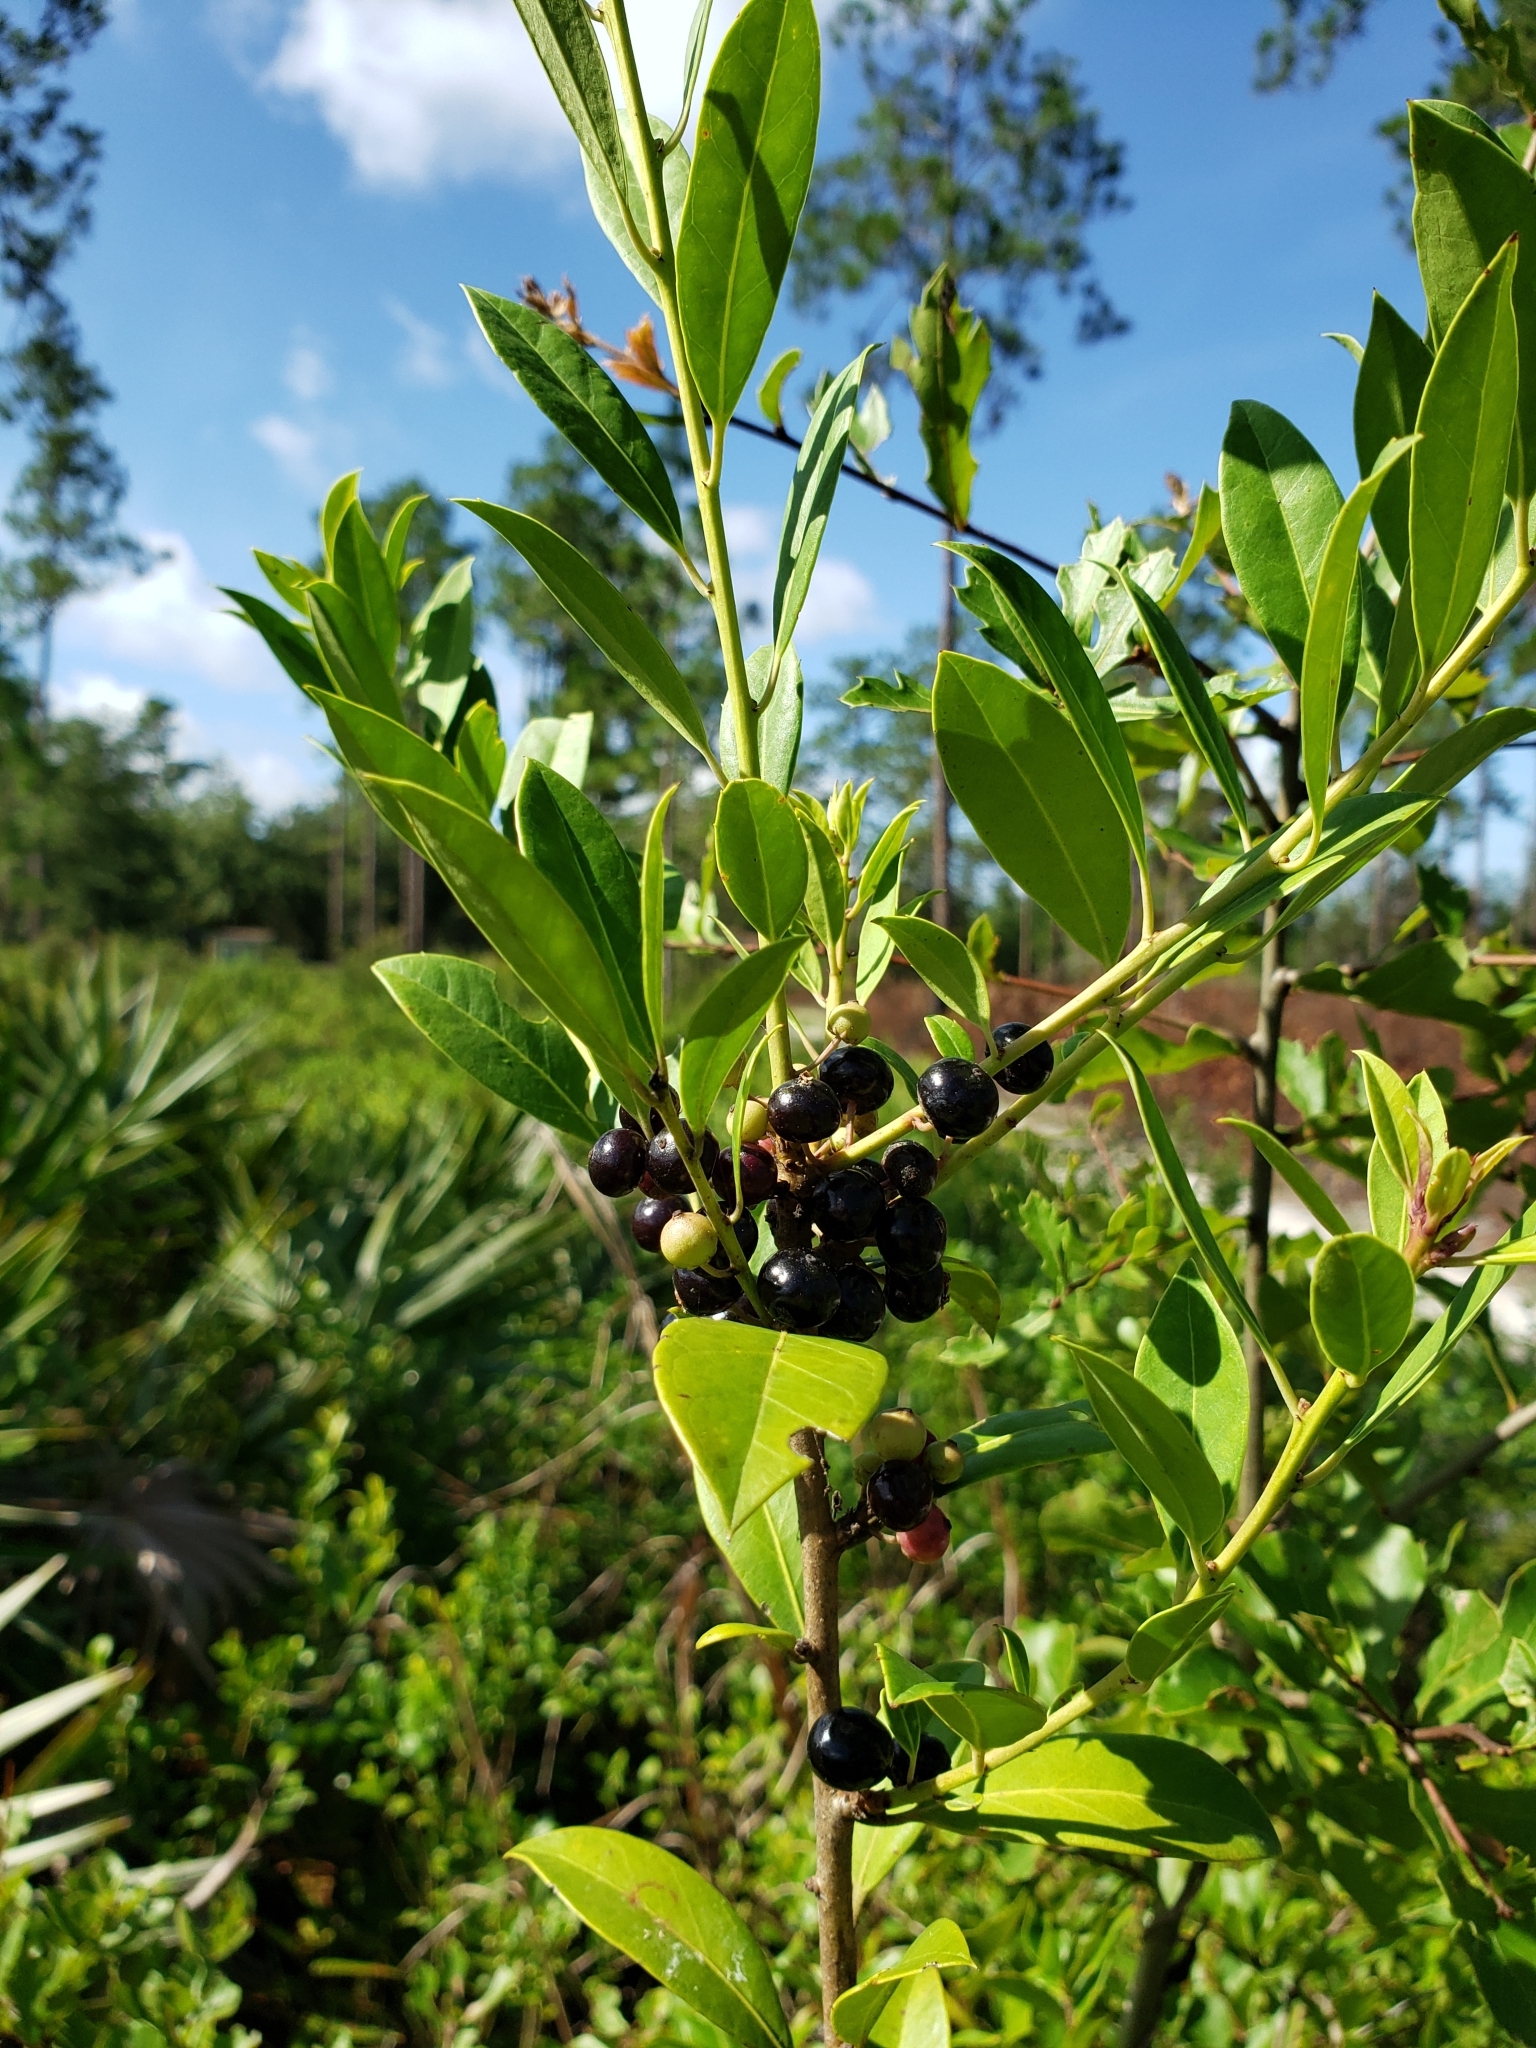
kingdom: Plantae
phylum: Tracheophyta
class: Magnoliopsida
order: Aquifoliales
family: Aquifoliaceae
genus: Ilex
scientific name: Ilex coriacea
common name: Sweet gallberry
